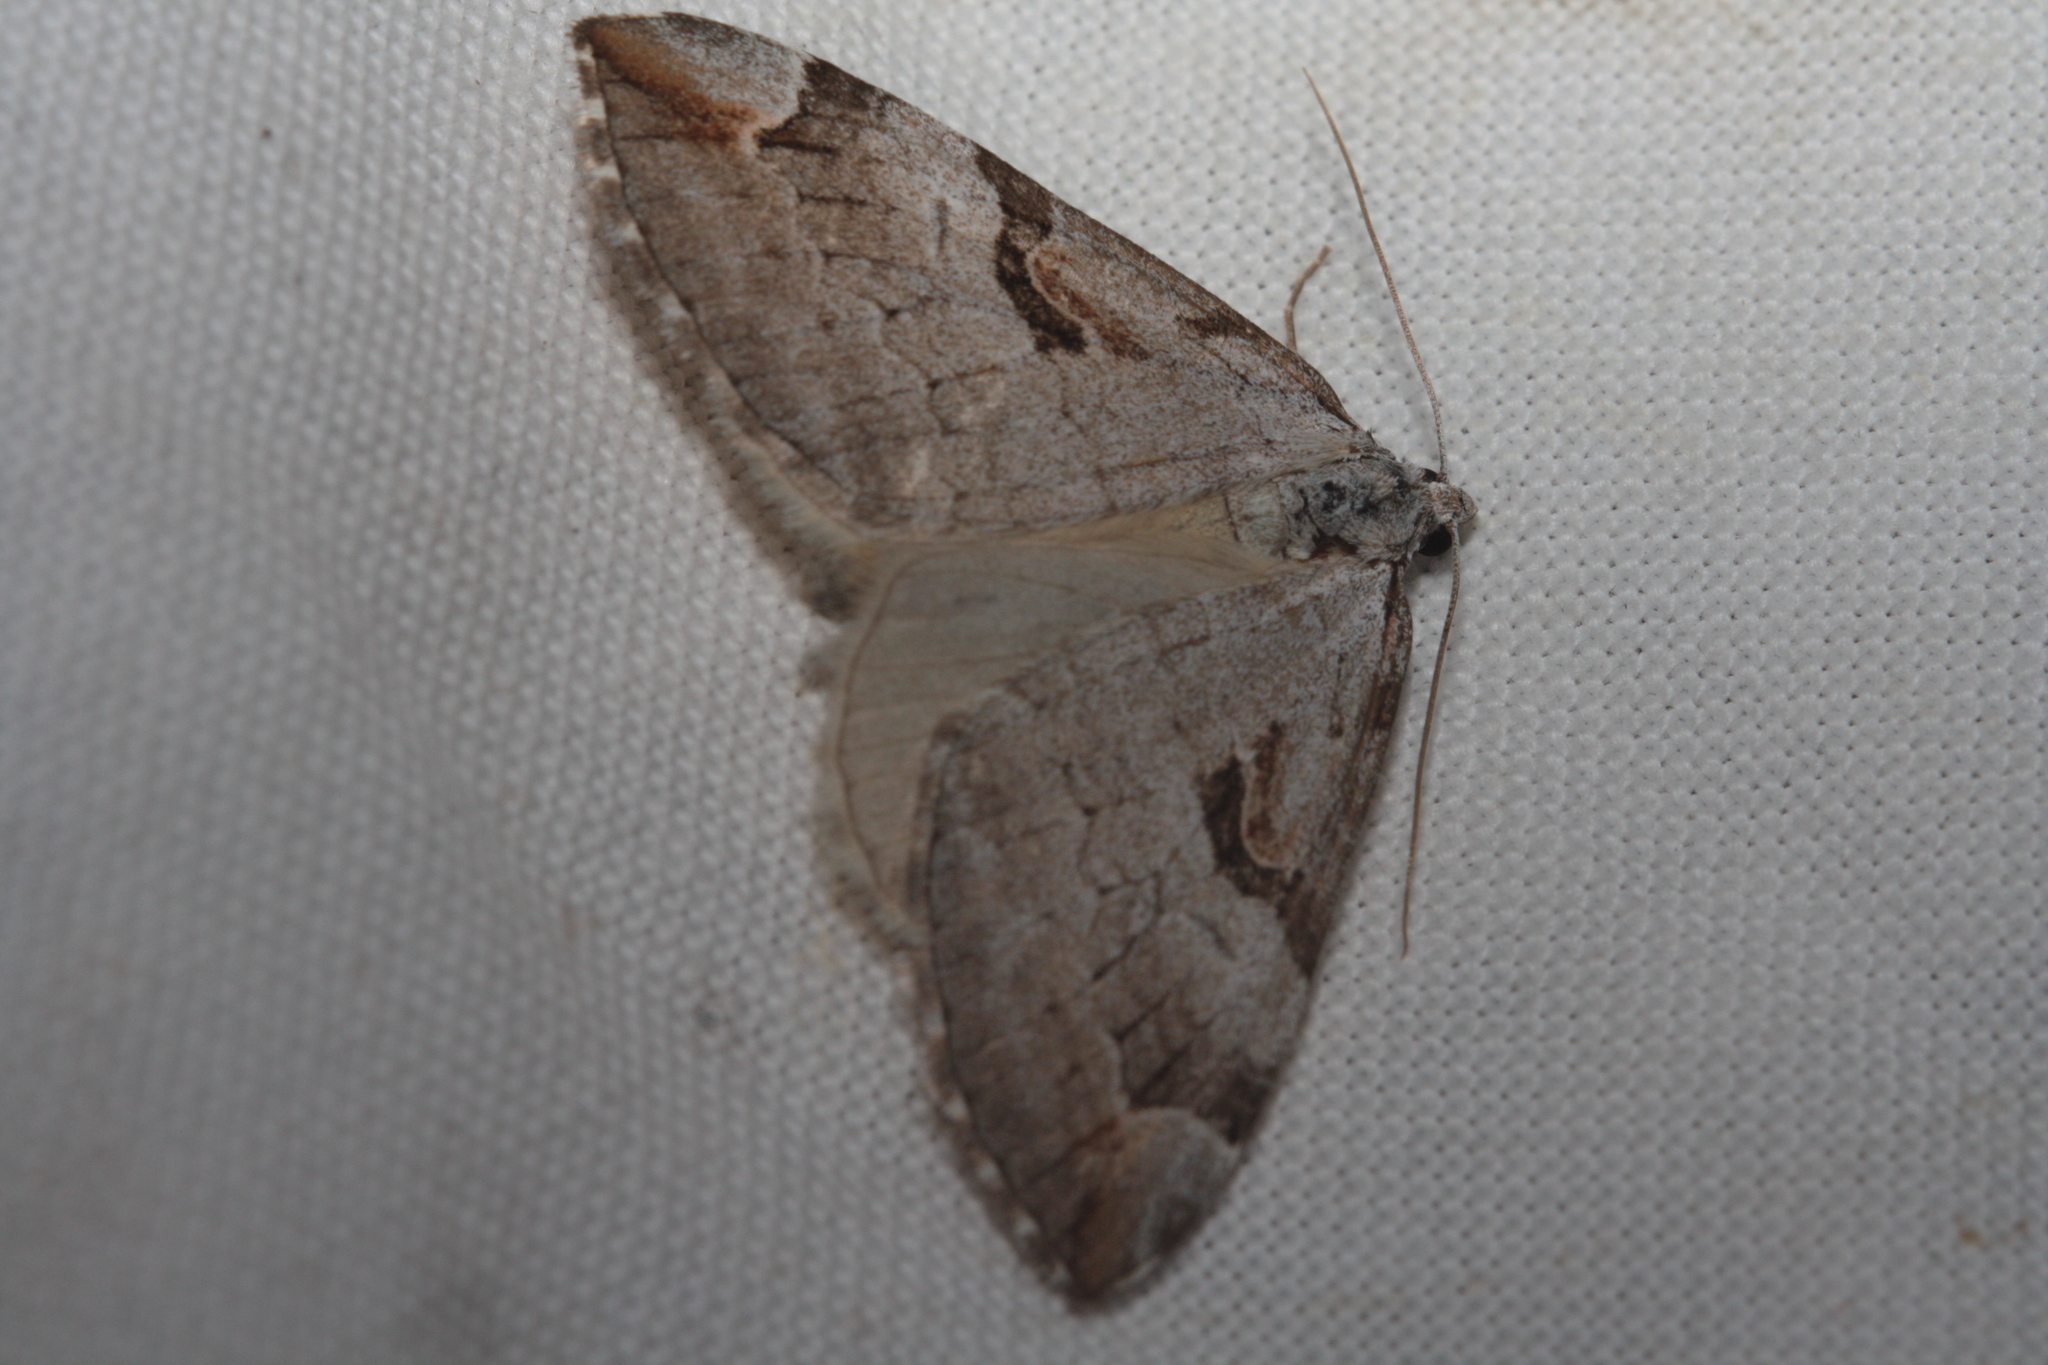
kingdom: Animalia
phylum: Arthropoda
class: Insecta
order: Lepidoptera
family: Geometridae
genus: Aplocera
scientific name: Aplocera praeformata
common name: Purple treble-bar
